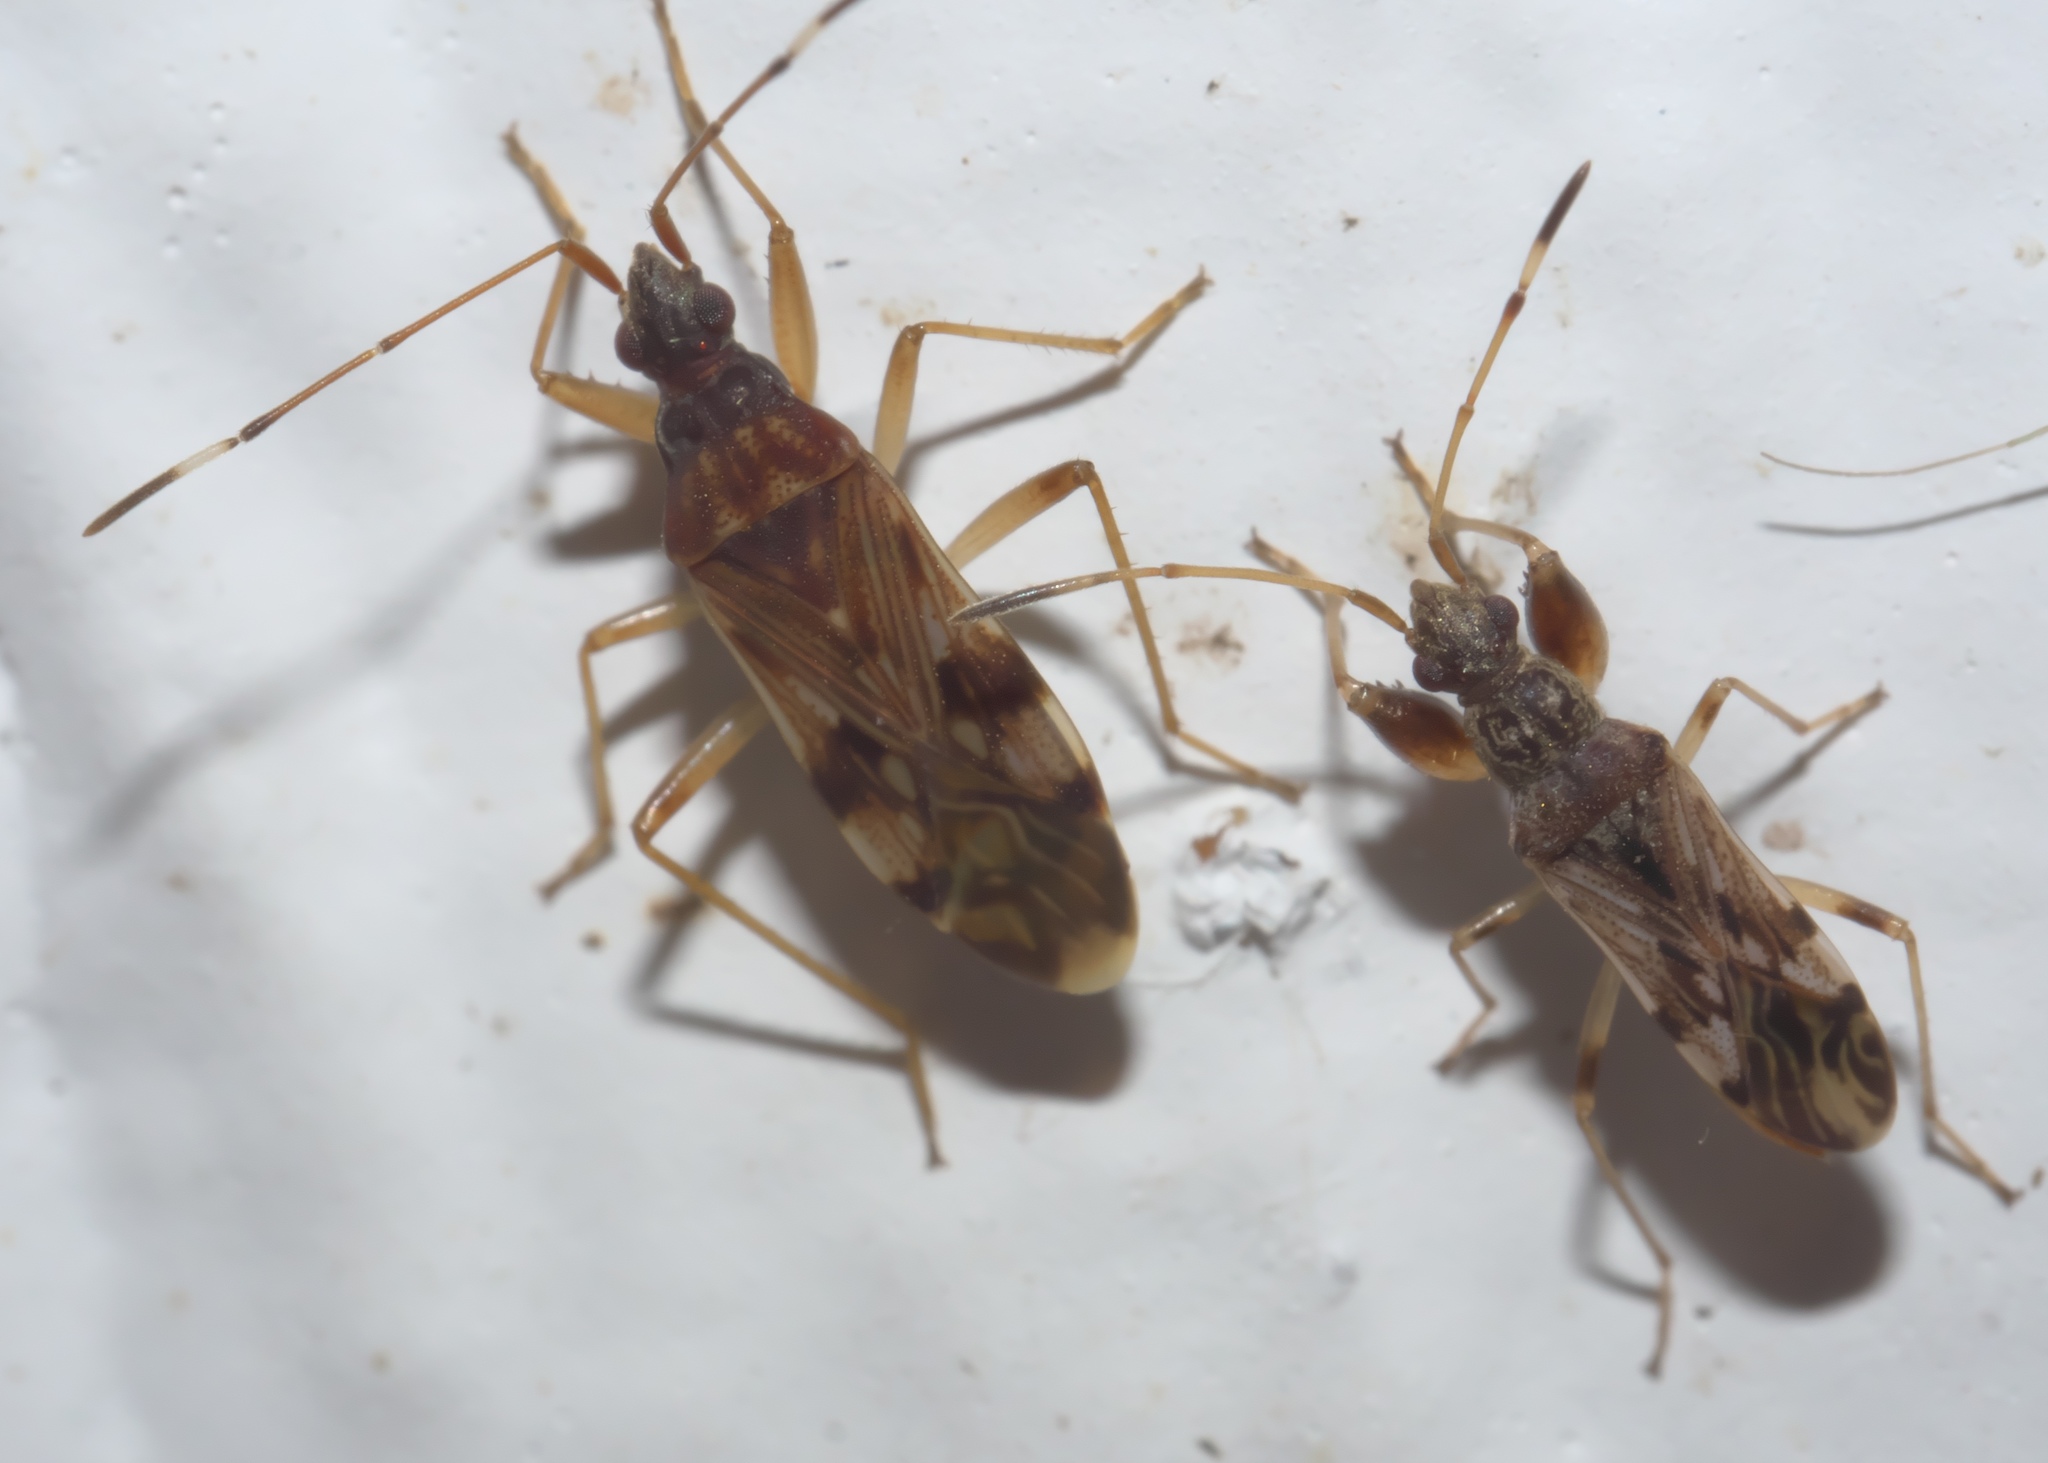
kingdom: Animalia
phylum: Arthropoda
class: Insecta
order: Hemiptera
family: Rhyparochromidae
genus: Ozophora
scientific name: Ozophora picturata
